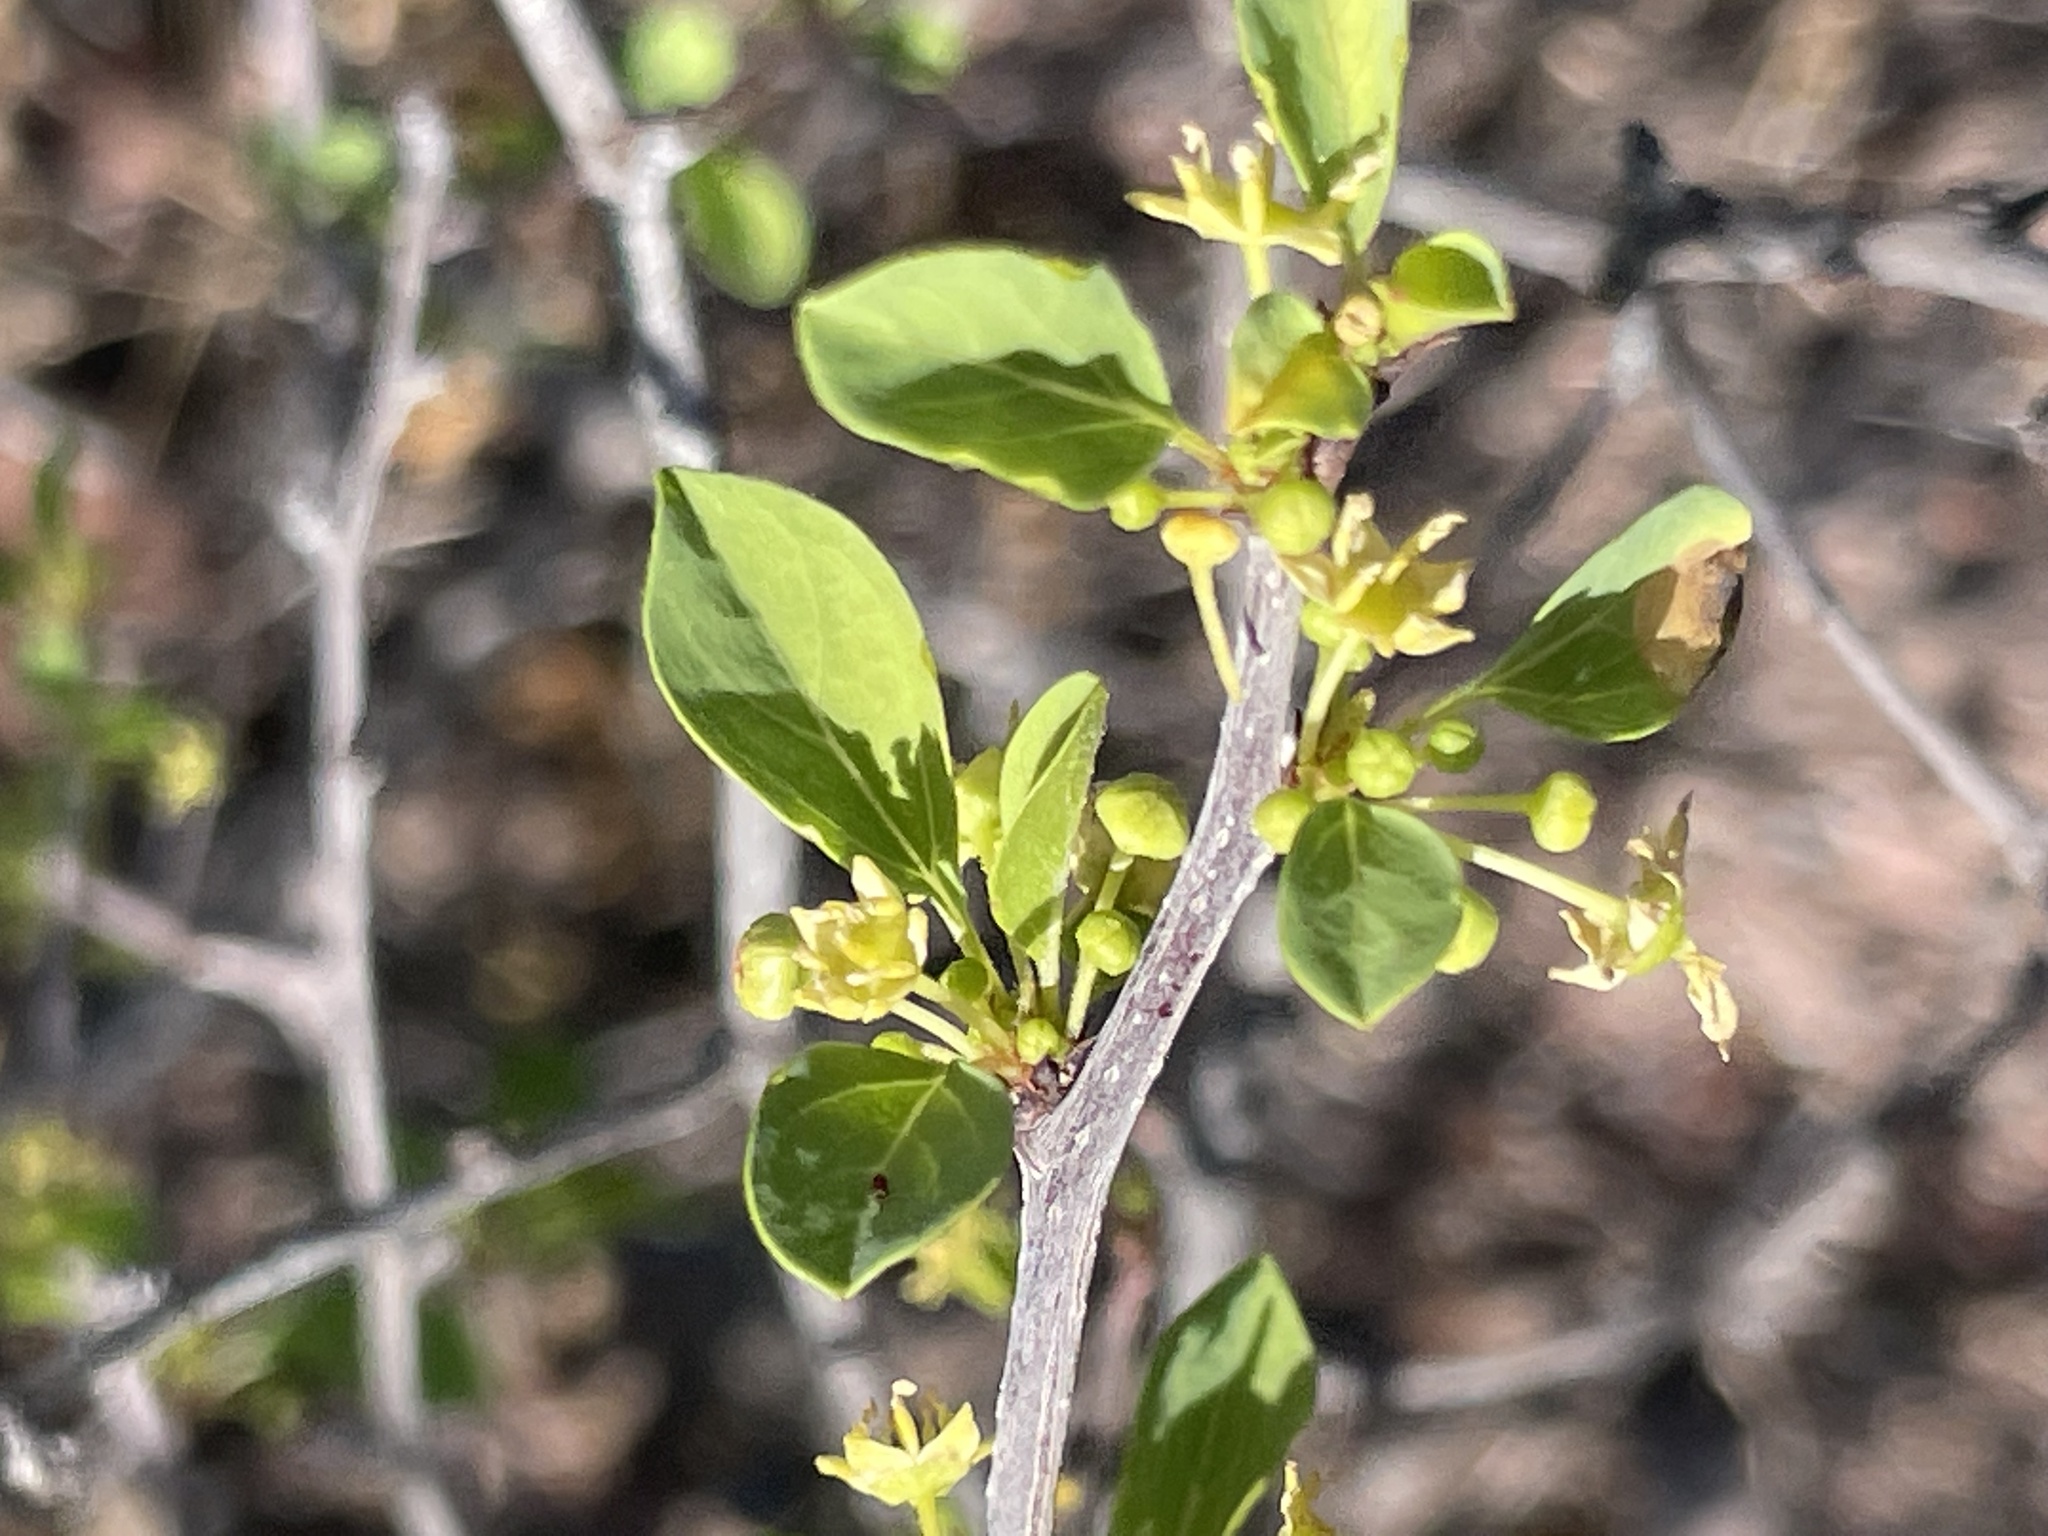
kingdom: Plantae
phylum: Tracheophyta
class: Magnoliopsida
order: Rosales
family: Rhamnaceae
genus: Colubrina
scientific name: Colubrina viridis
